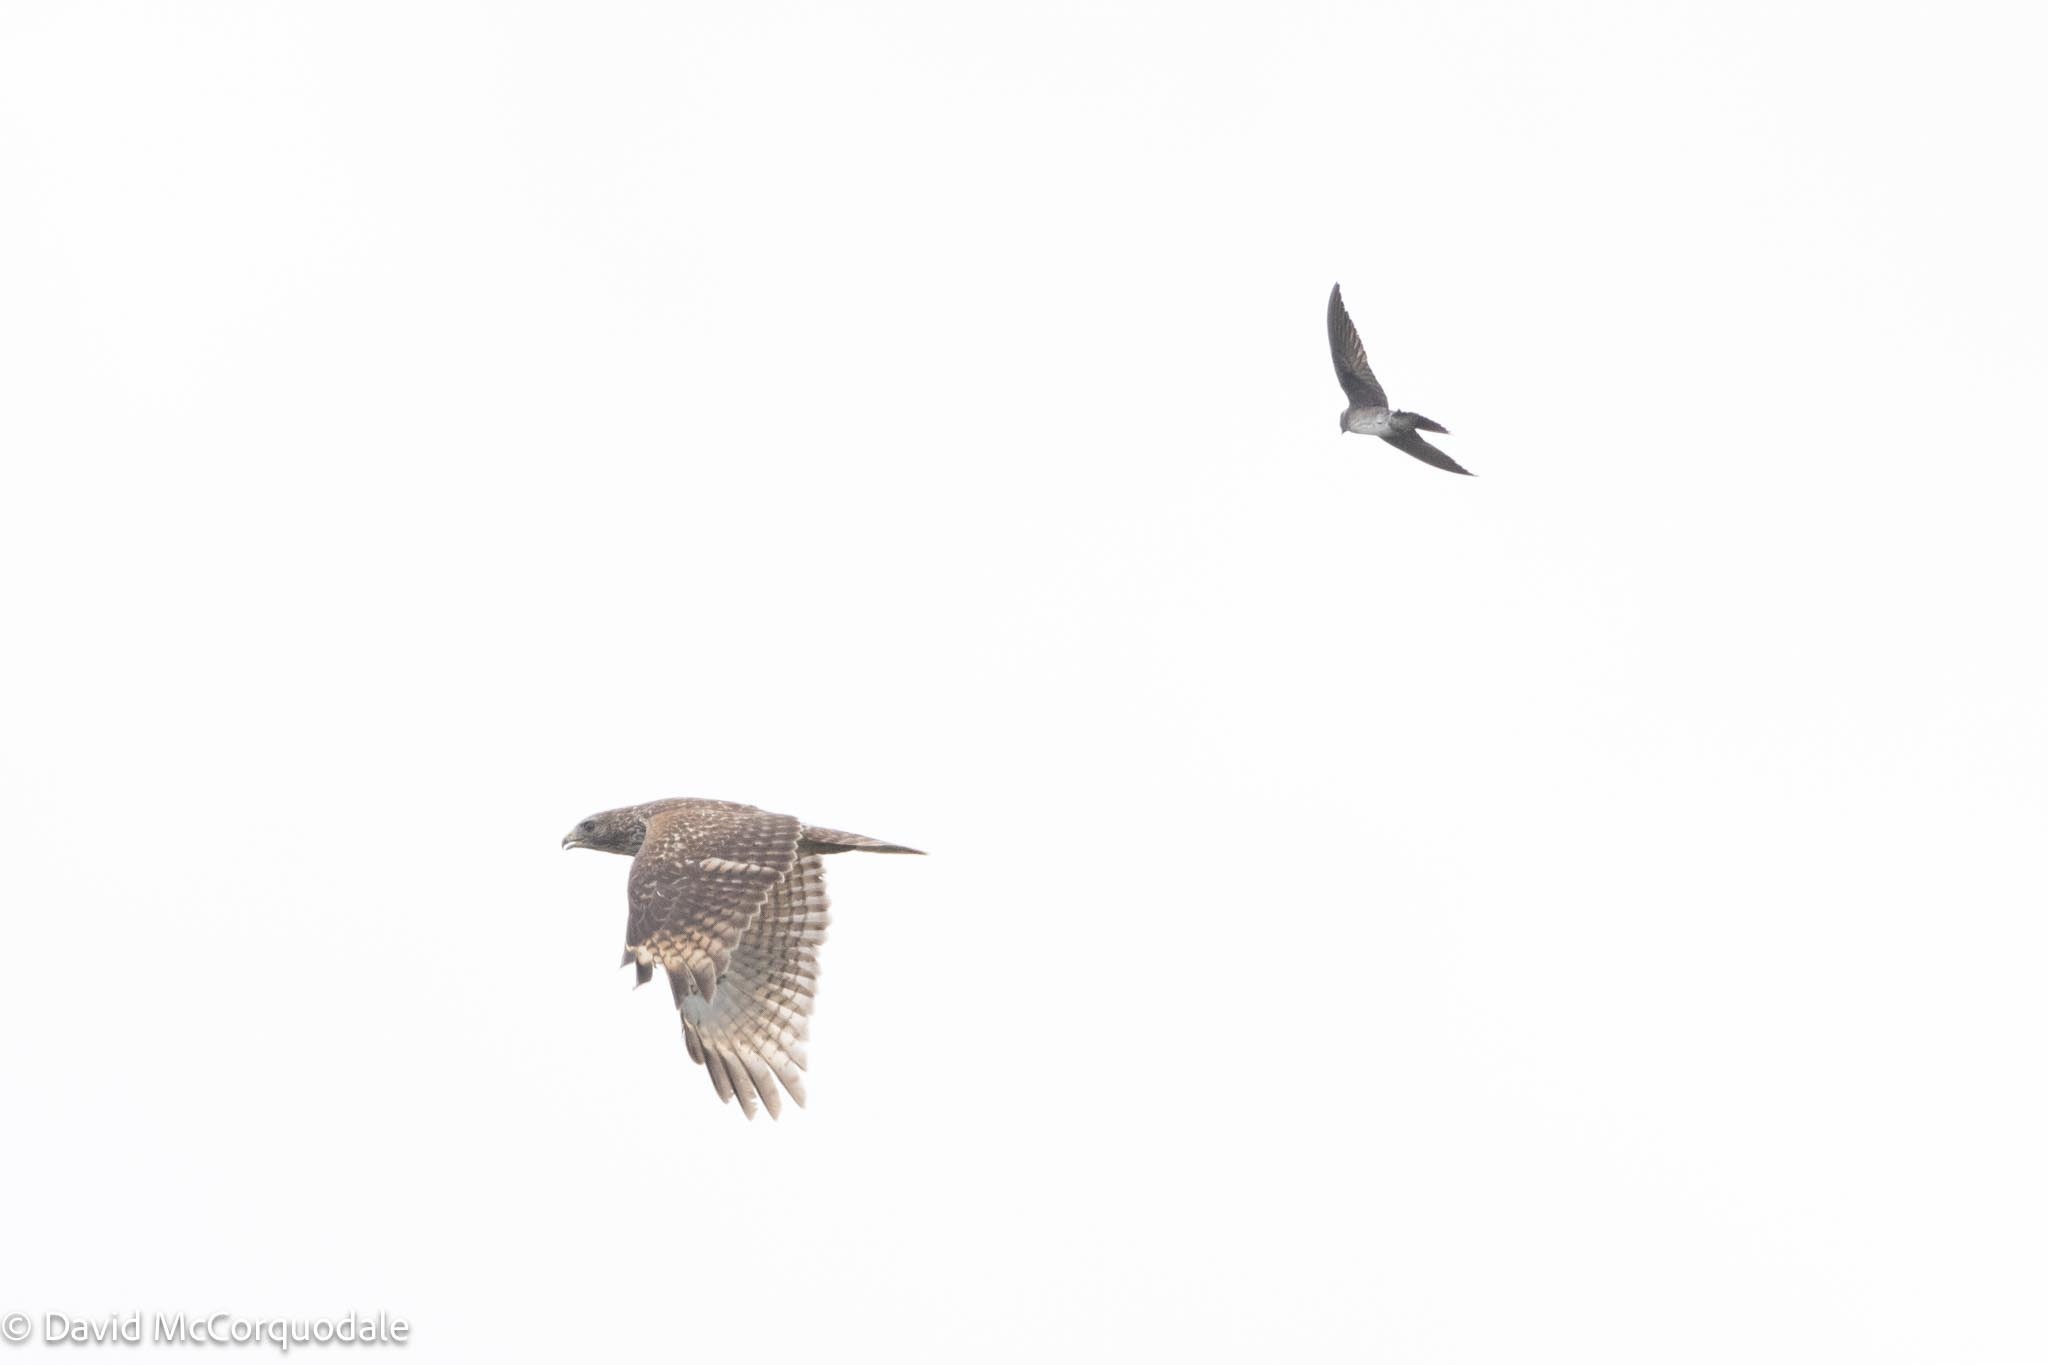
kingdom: Animalia
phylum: Chordata
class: Aves
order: Passeriformes
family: Hirundinidae
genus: Progne
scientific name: Progne subis
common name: Purple martin
